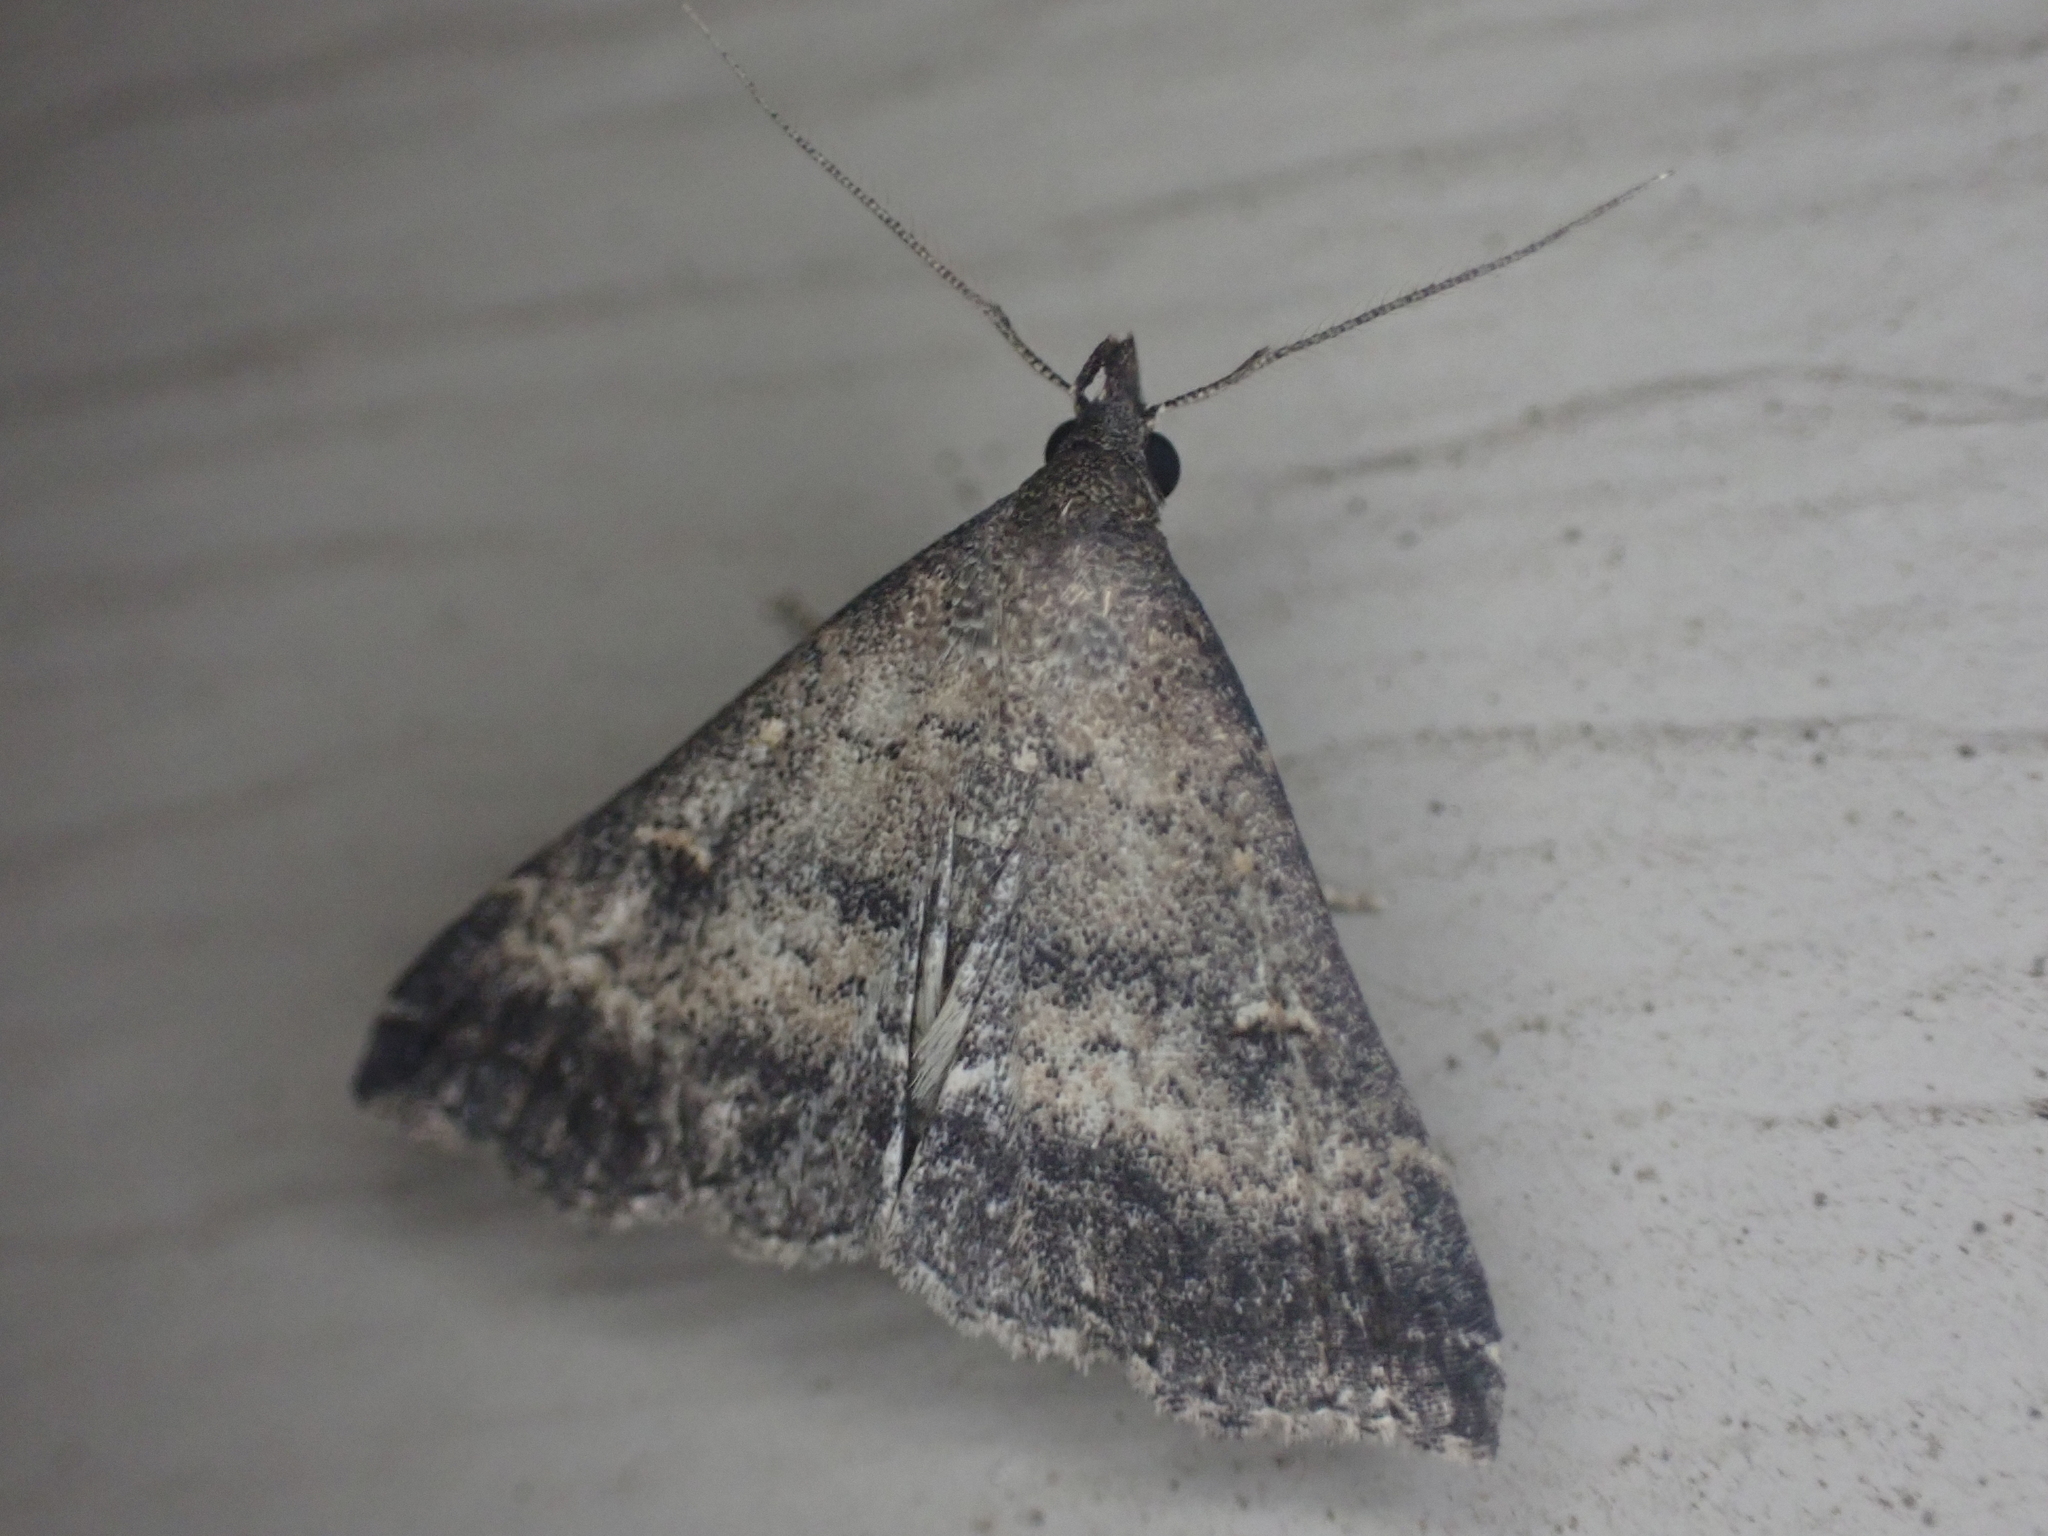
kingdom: Animalia
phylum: Arthropoda
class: Insecta
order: Lepidoptera
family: Erebidae
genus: Tetanolita
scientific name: Tetanolita floridana
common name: Florida tetanolita moth
